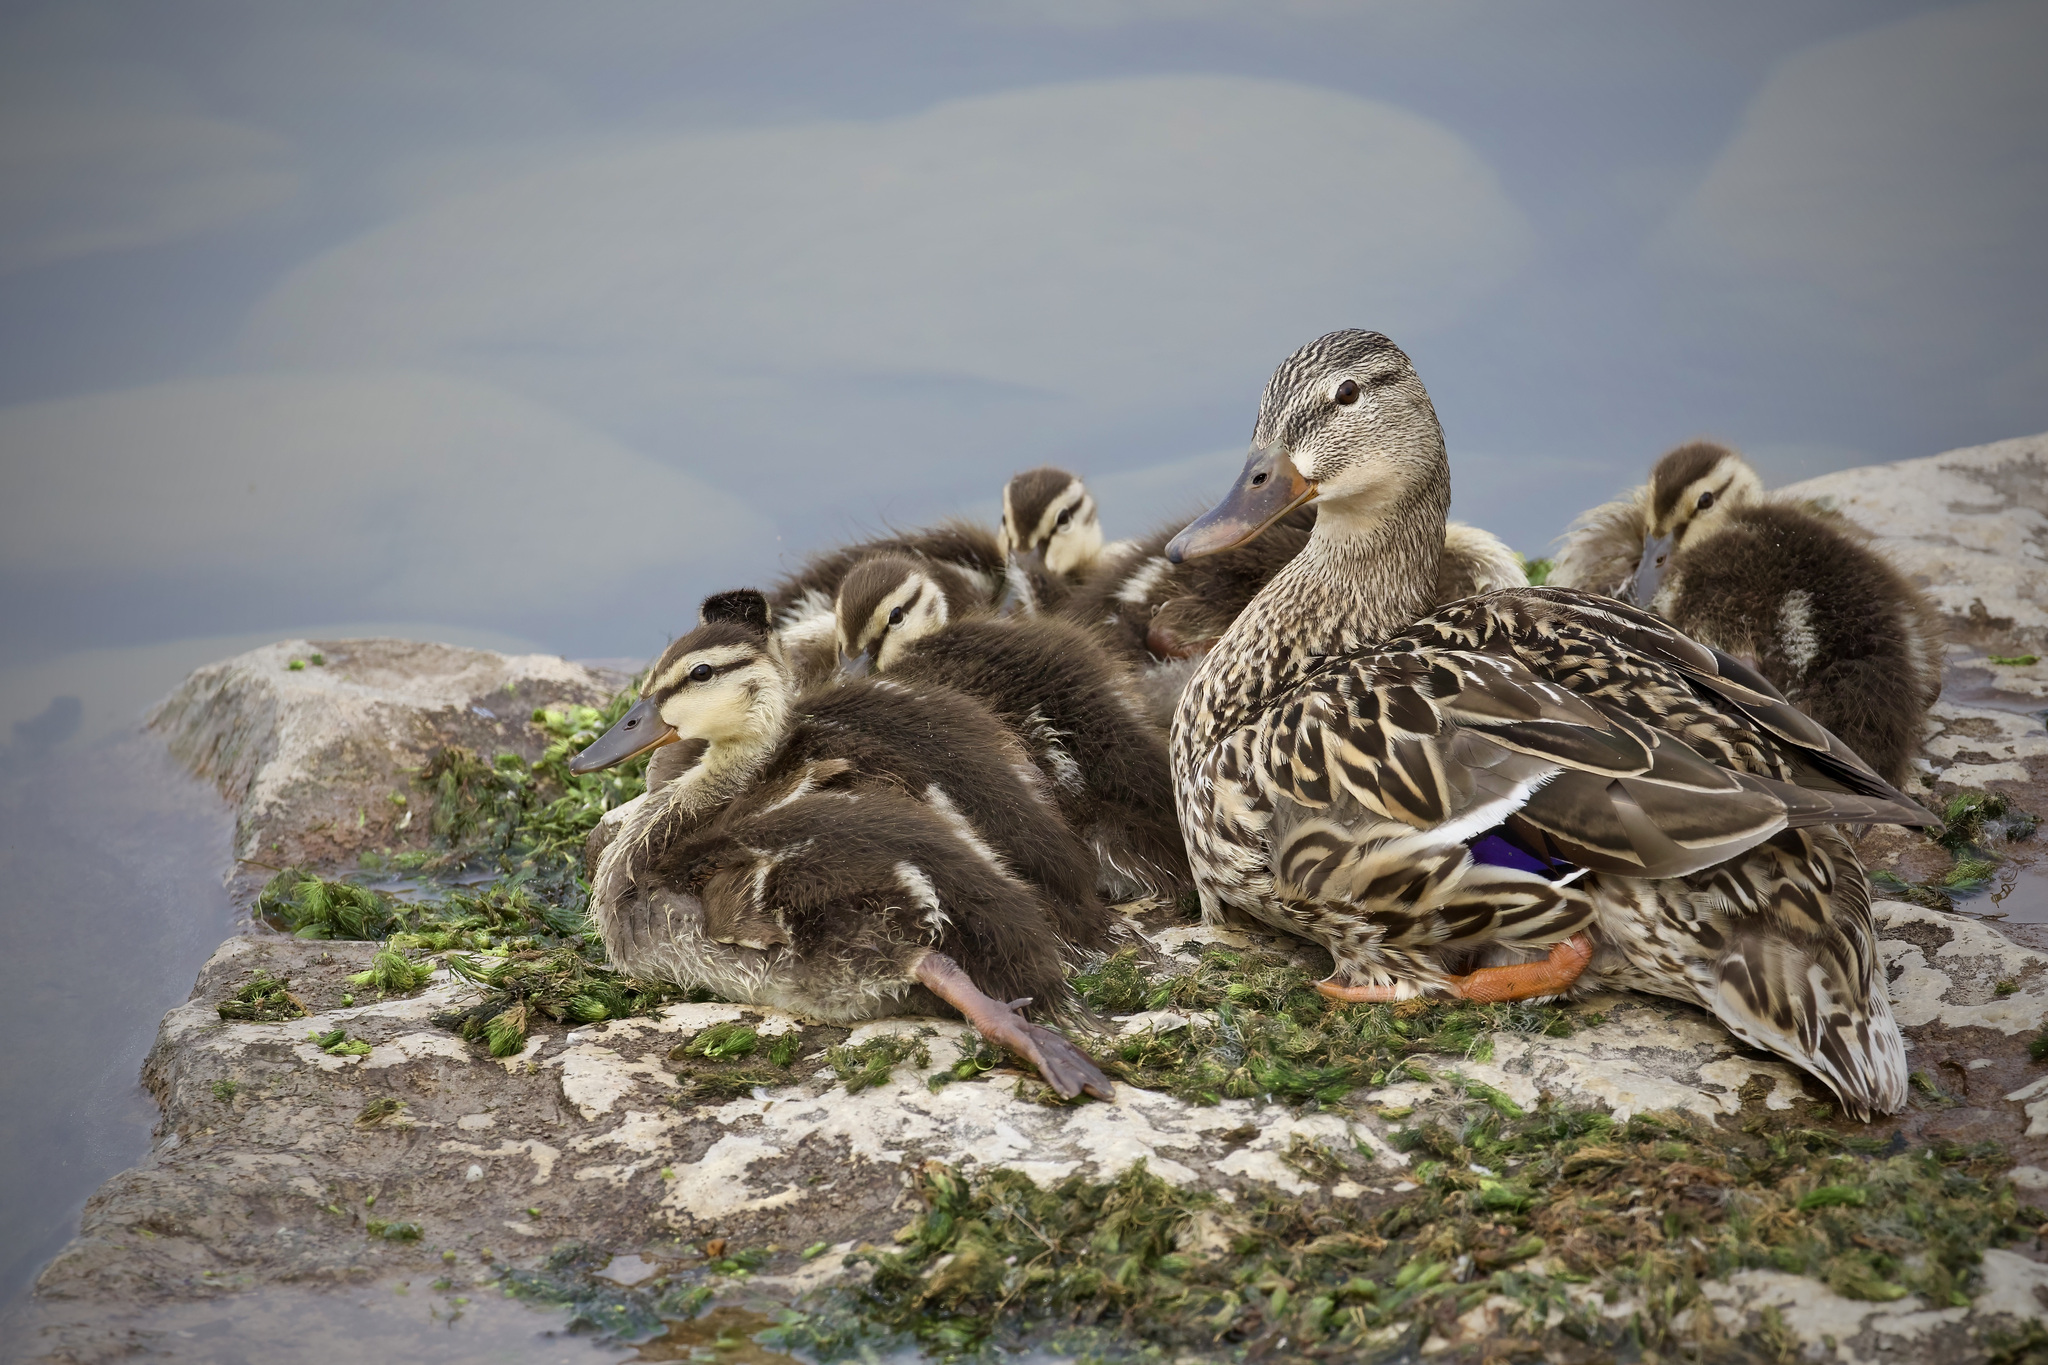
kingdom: Animalia
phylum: Chordata
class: Aves
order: Anseriformes
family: Anatidae
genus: Anas
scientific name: Anas platyrhynchos
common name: Mallard
